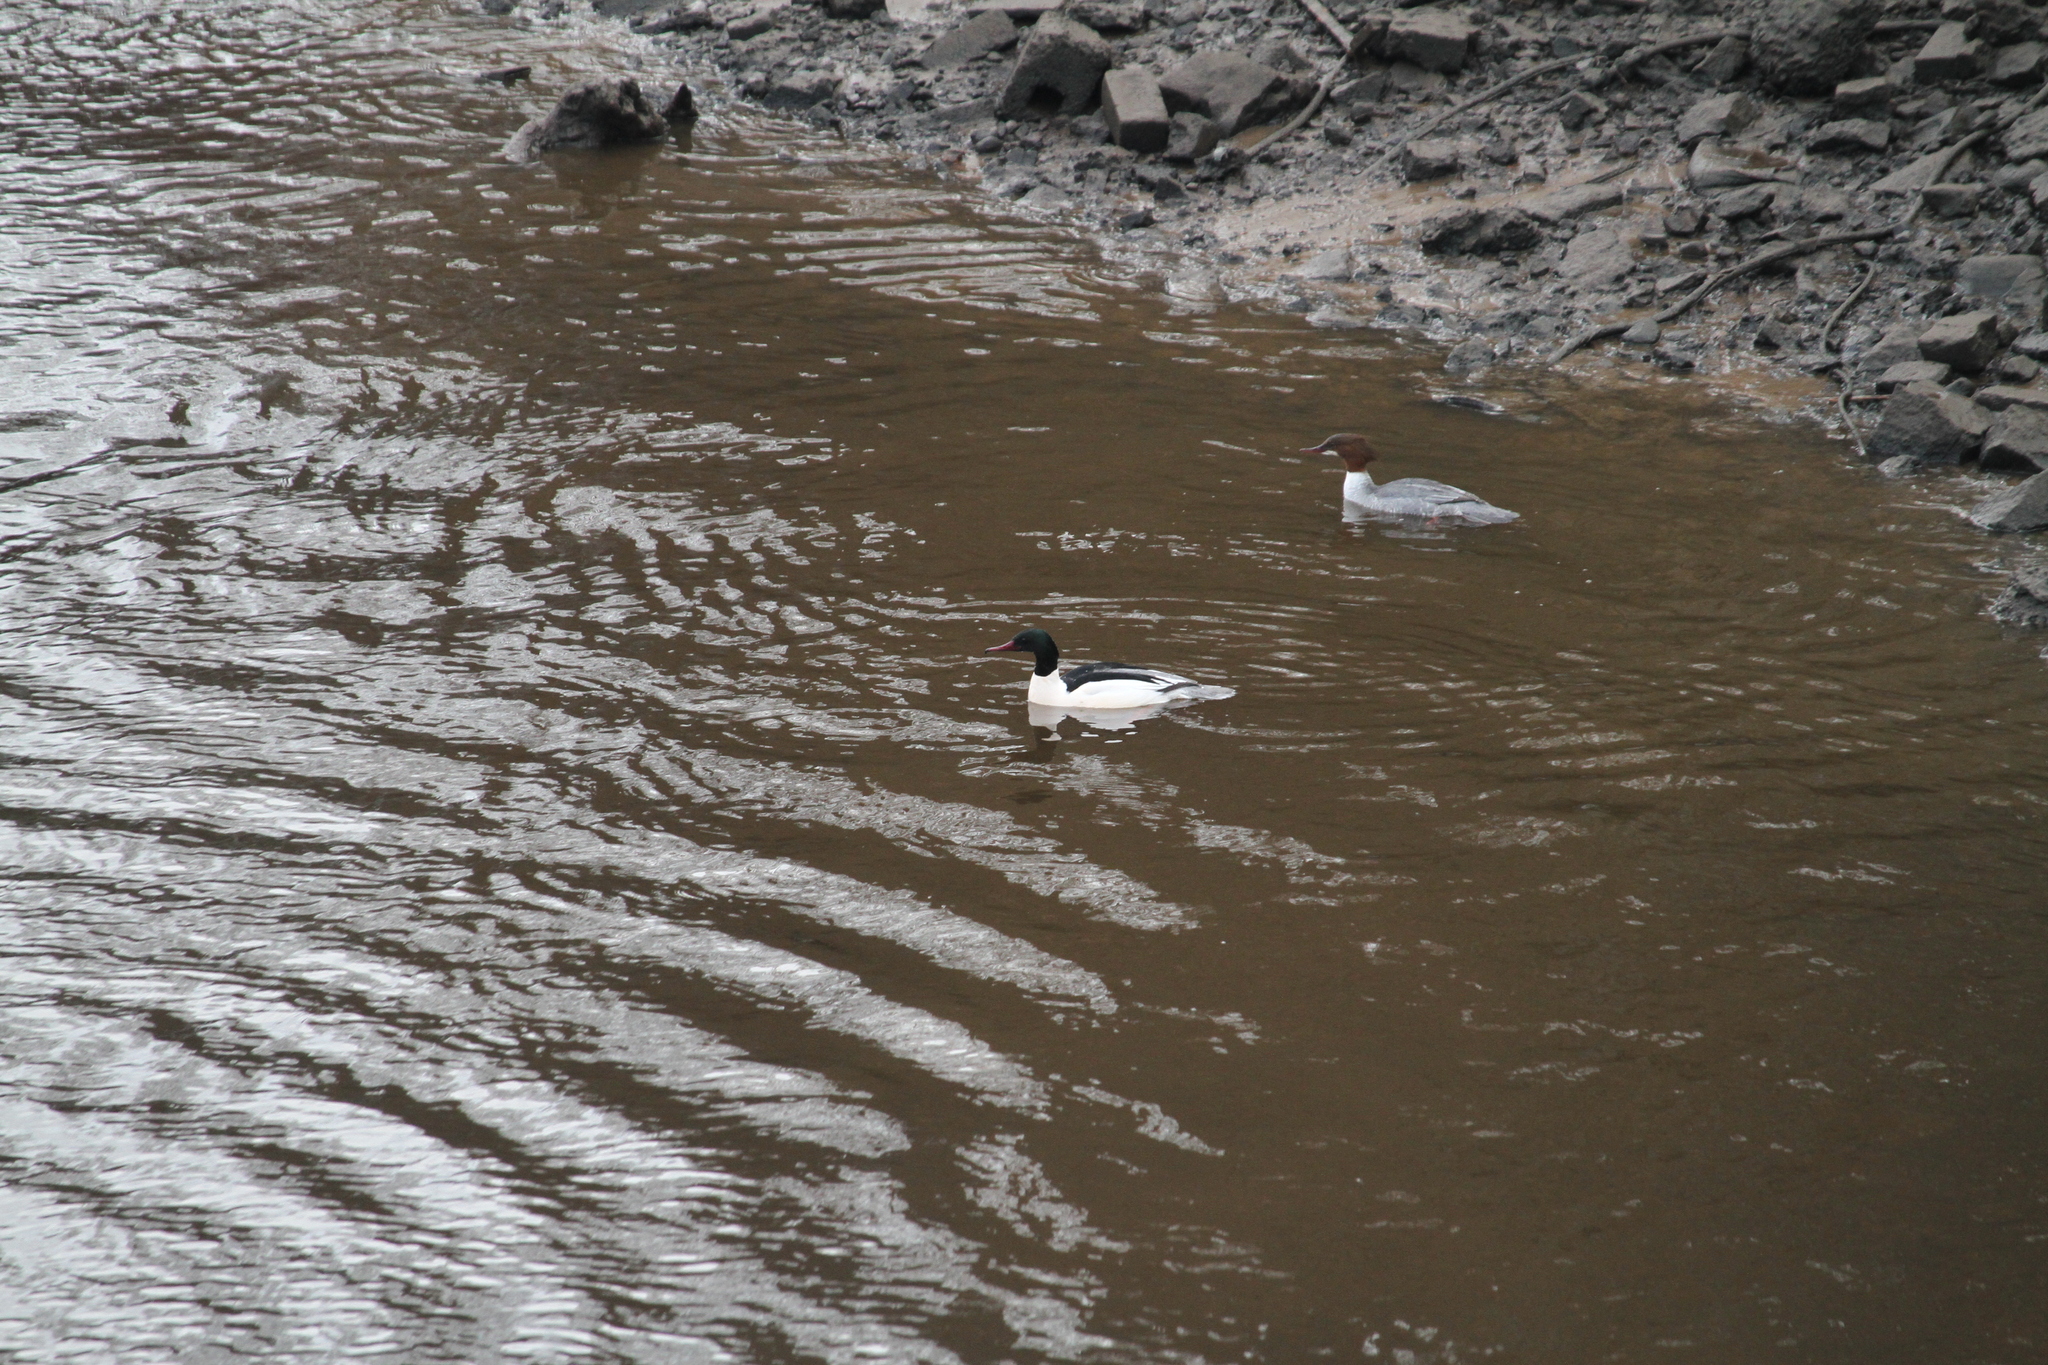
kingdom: Animalia
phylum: Chordata
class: Aves
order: Anseriformes
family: Anatidae
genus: Mergus
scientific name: Mergus merganser
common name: Common merganser
